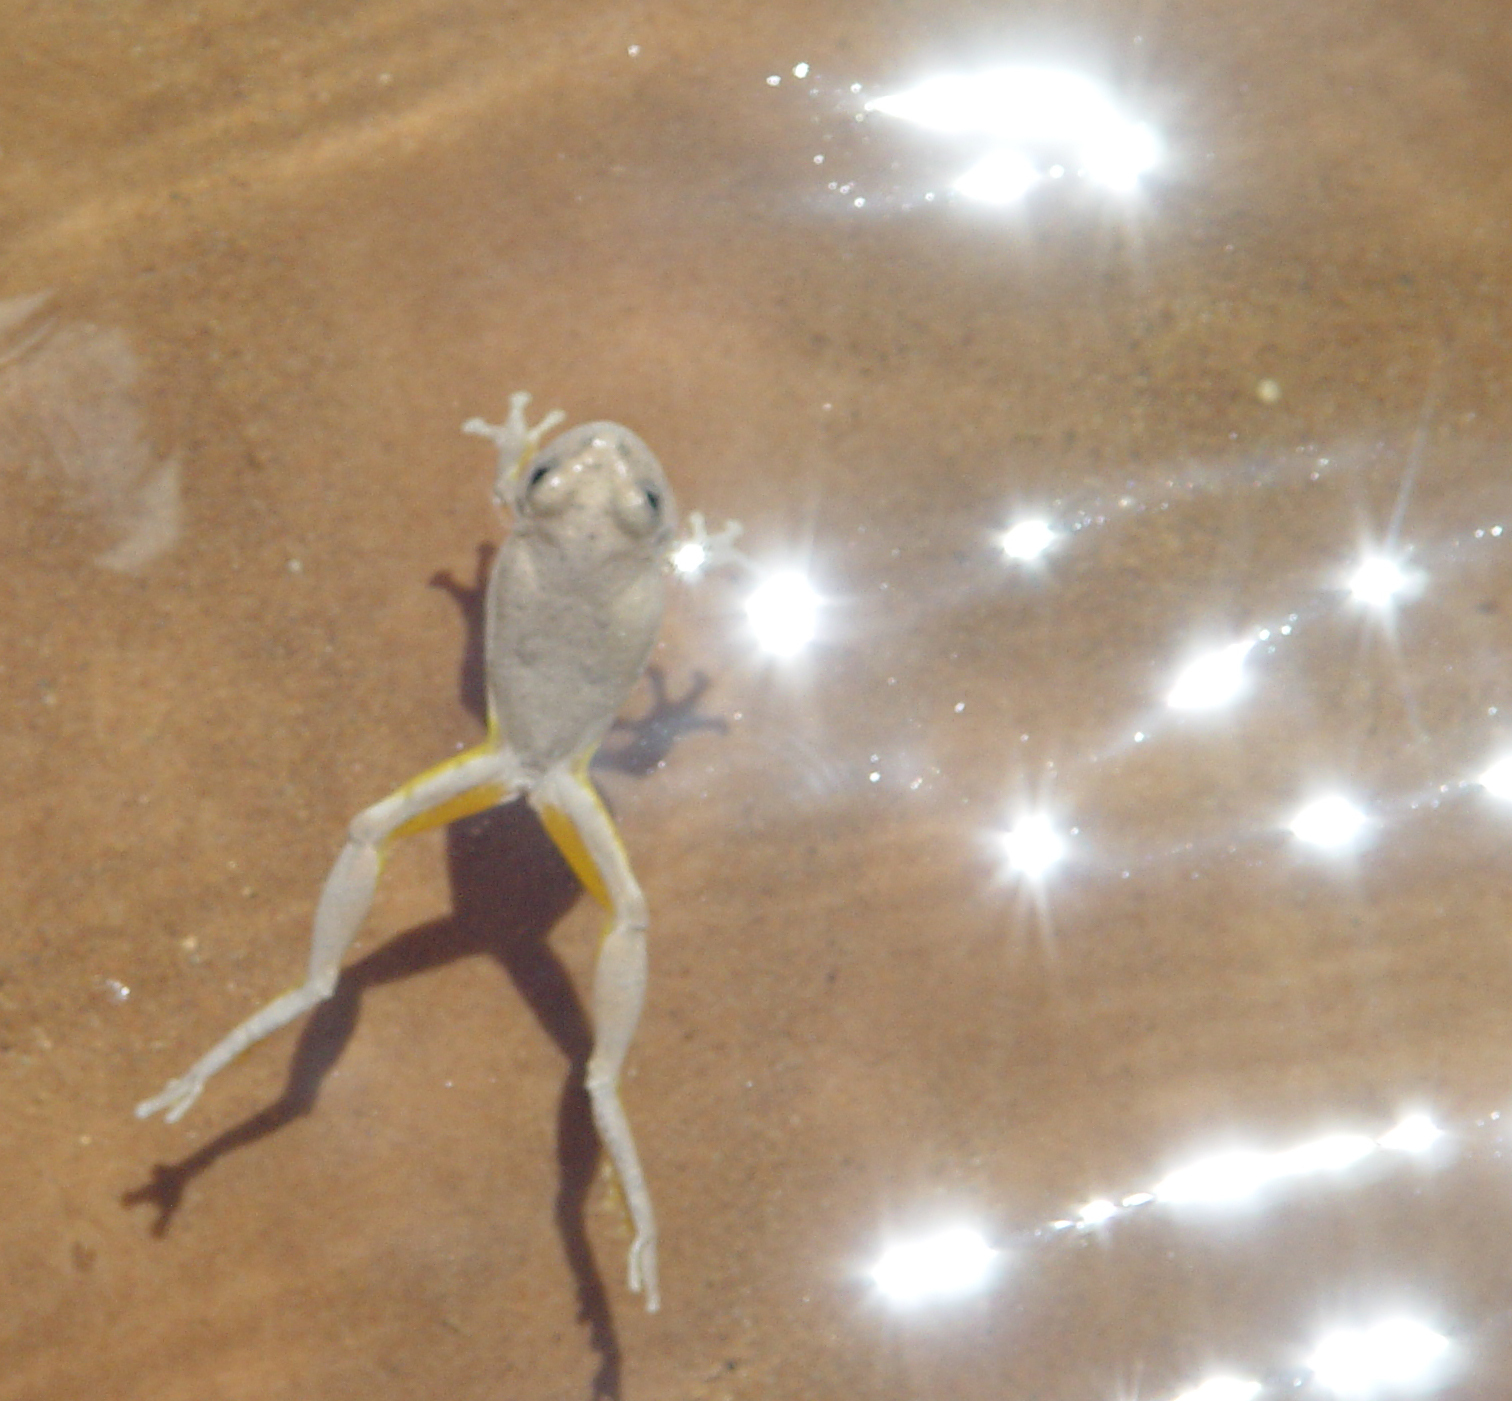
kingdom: Animalia
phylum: Chordata
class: Amphibia
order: Anura
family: Hylidae
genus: Dryophytes
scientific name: Dryophytes arenicolor
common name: Canyon treefrog
